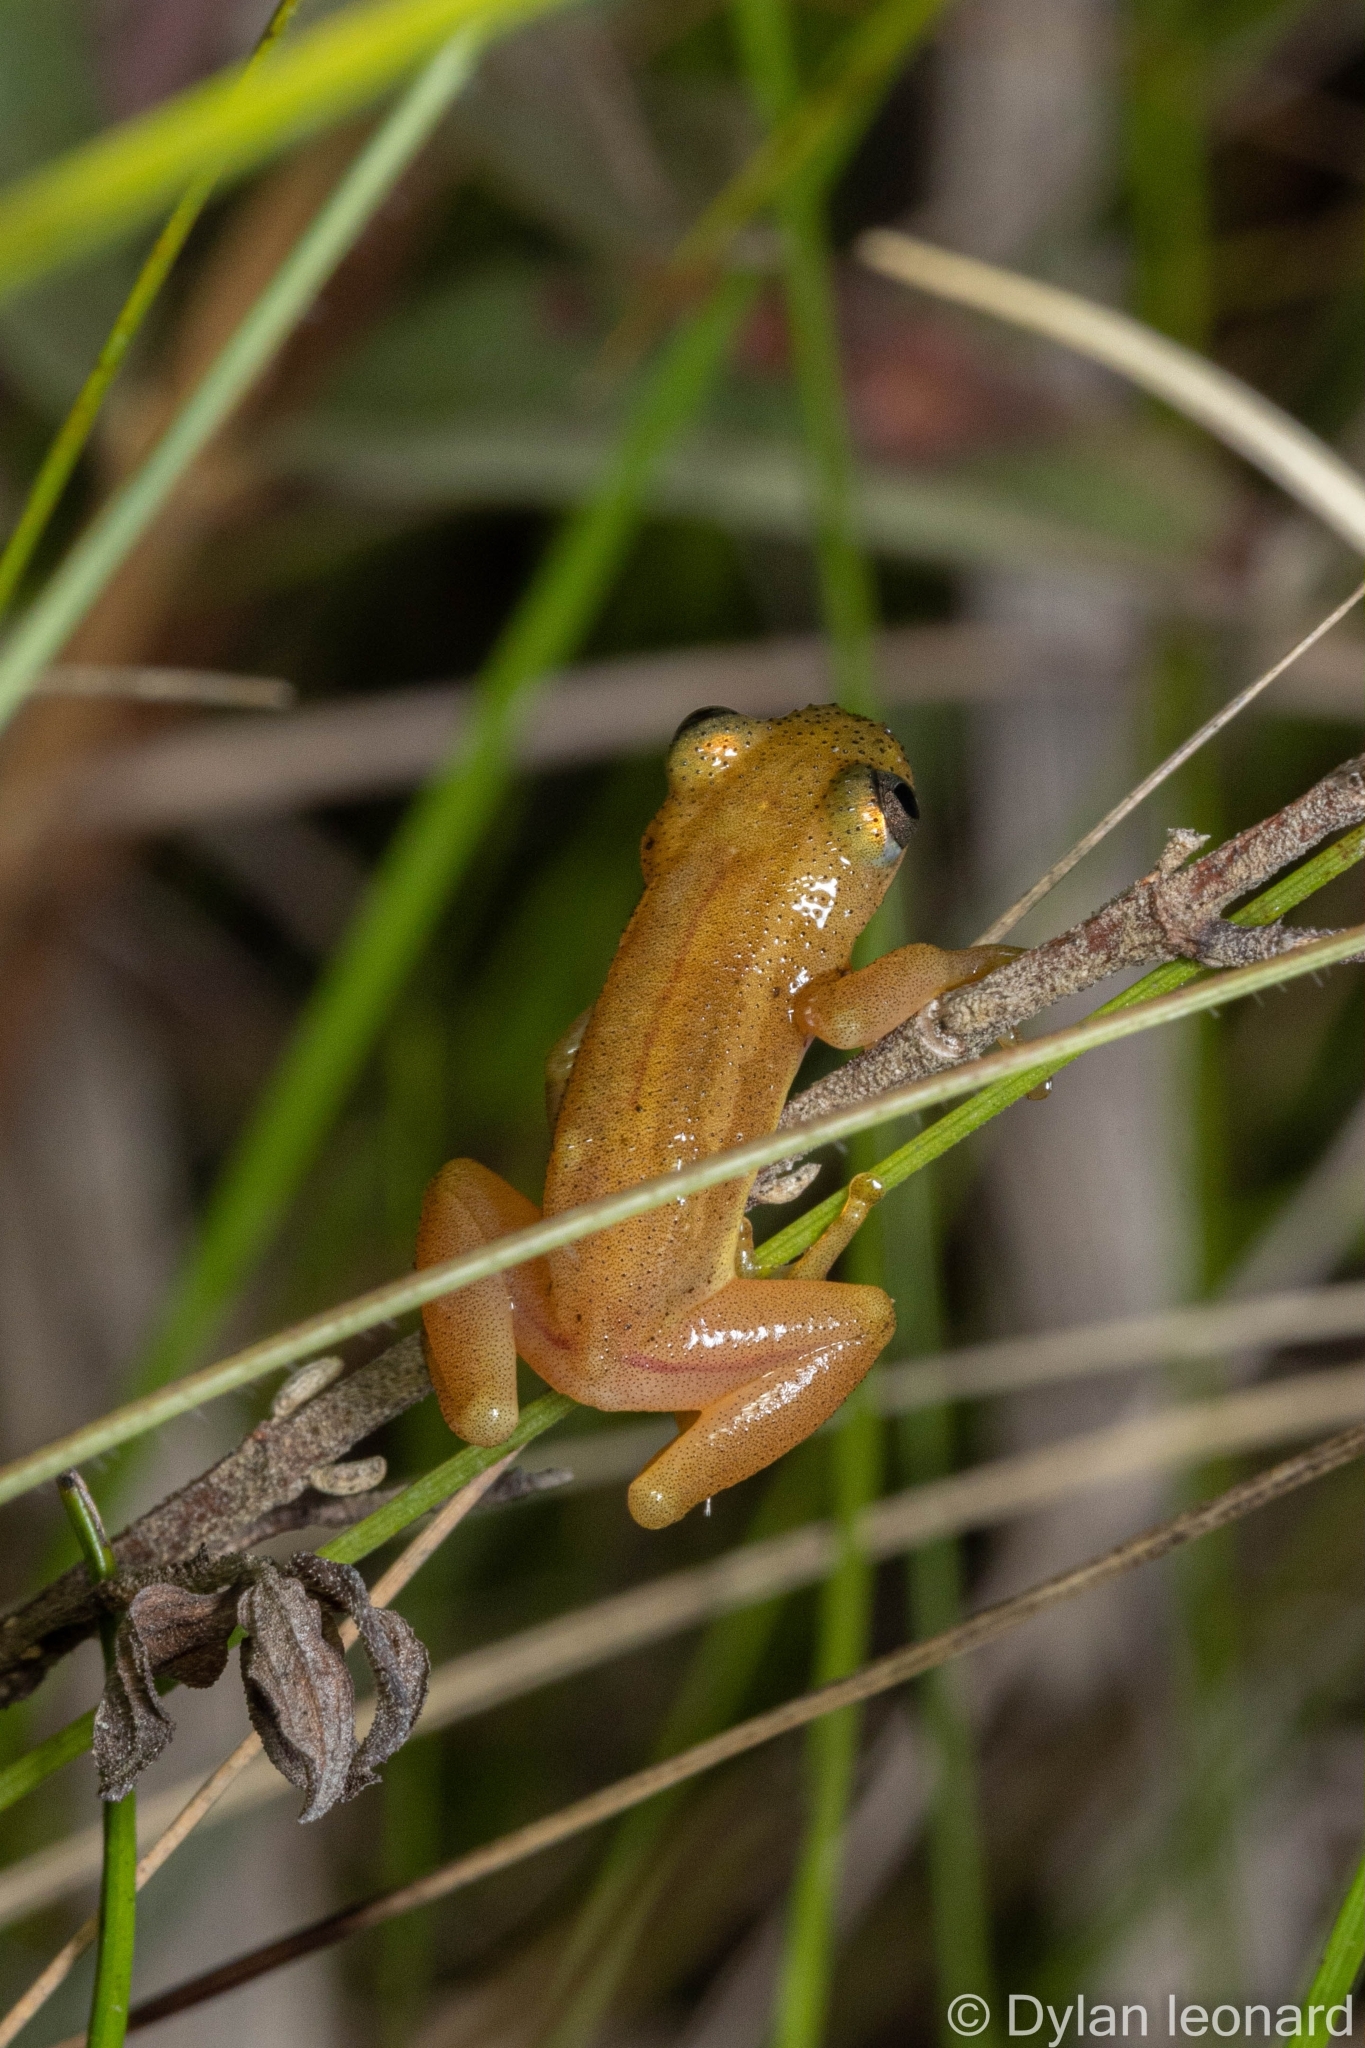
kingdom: Animalia
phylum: Chordata
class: Amphibia
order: Anura
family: Hyperoliidae
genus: Afrixalus
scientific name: Afrixalus spinifrons
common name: Natal spiny reed frog
